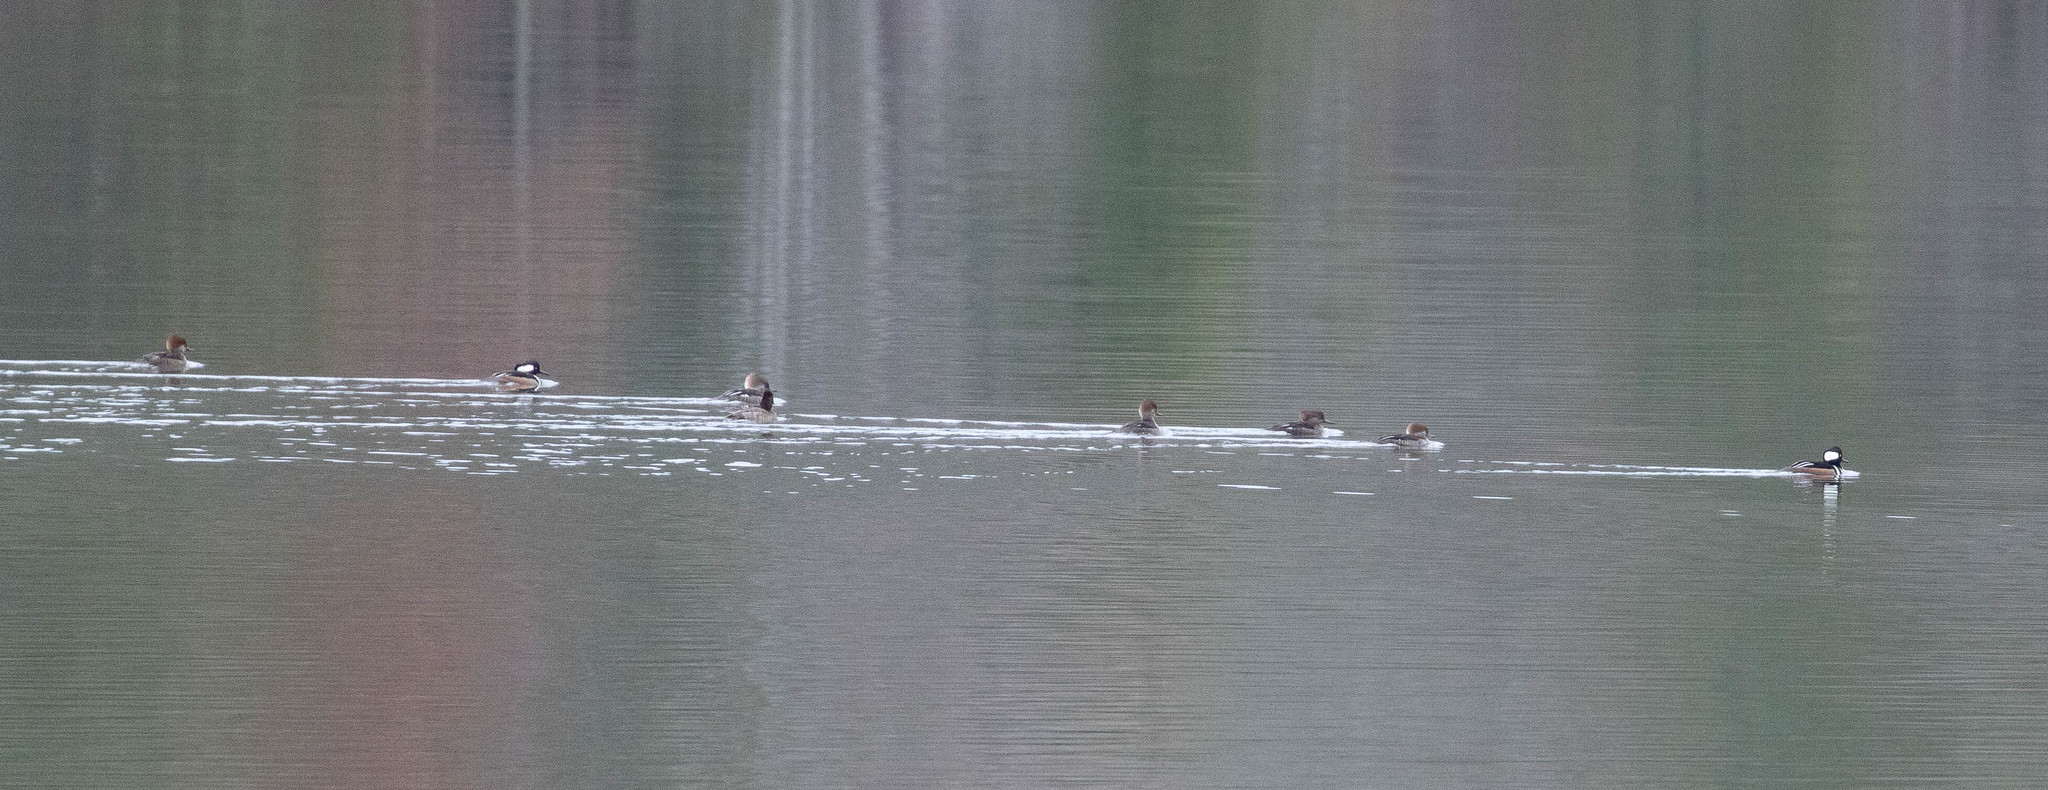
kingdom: Animalia
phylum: Chordata
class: Aves
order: Anseriformes
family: Anatidae
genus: Lophodytes
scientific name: Lophodytes cucullatus
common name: Hooded merganser
